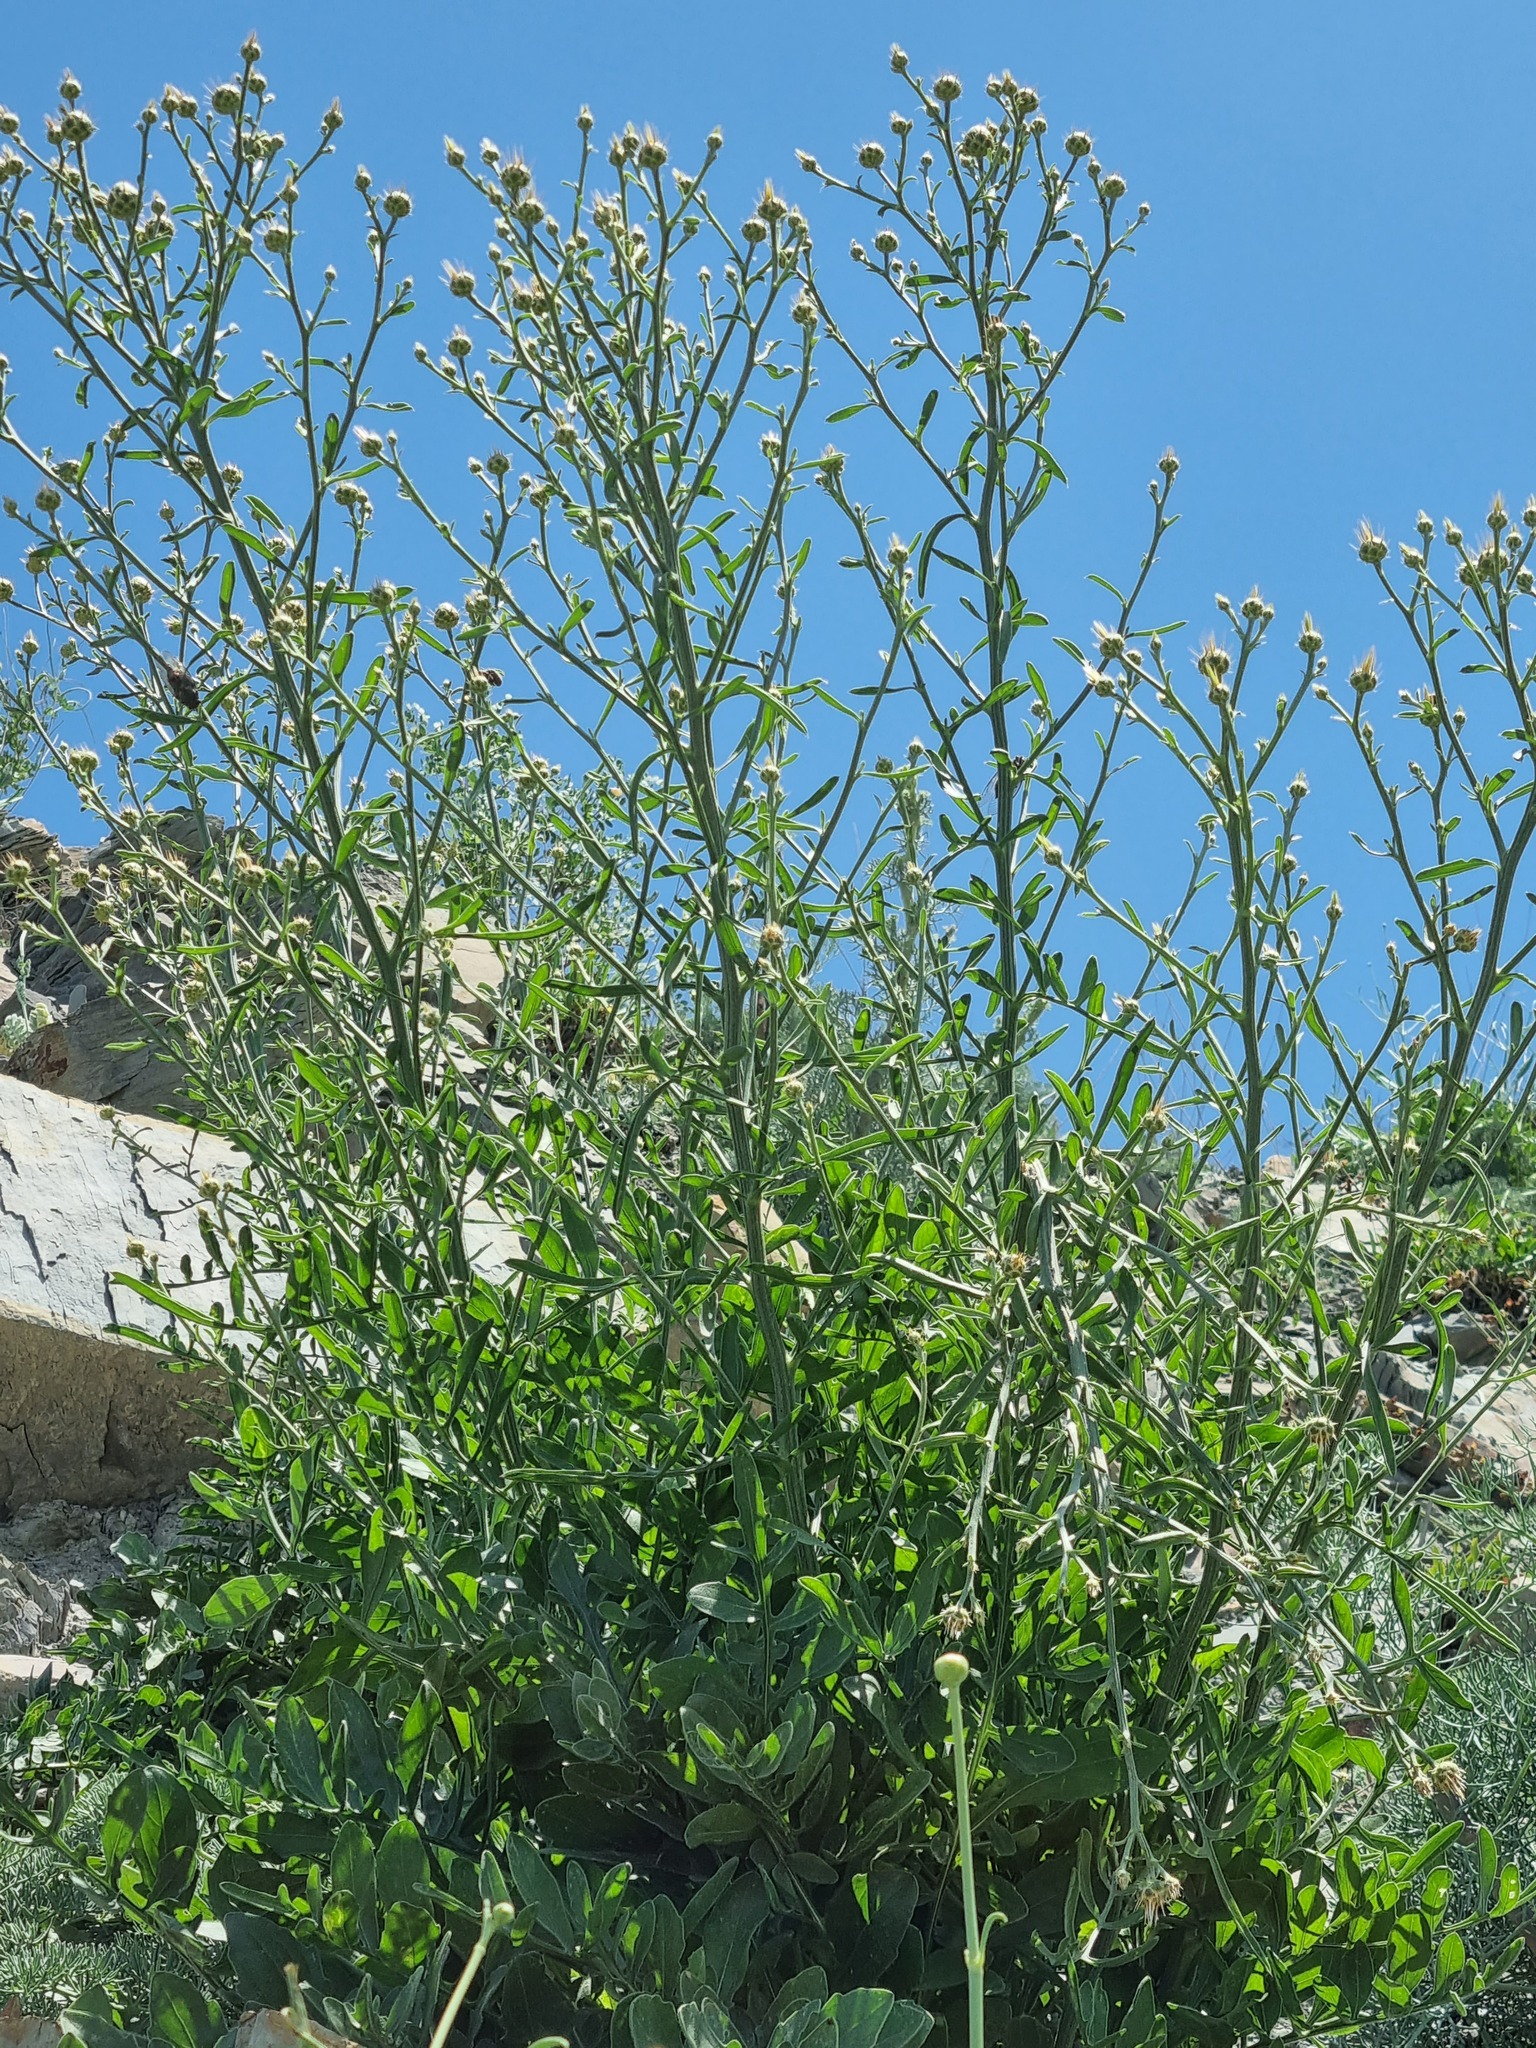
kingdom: Plantae
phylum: Tracheophyta
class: Magnoliopsida
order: Asterales
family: Asteraceae
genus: Centaurea
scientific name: Centaurea salonitana
